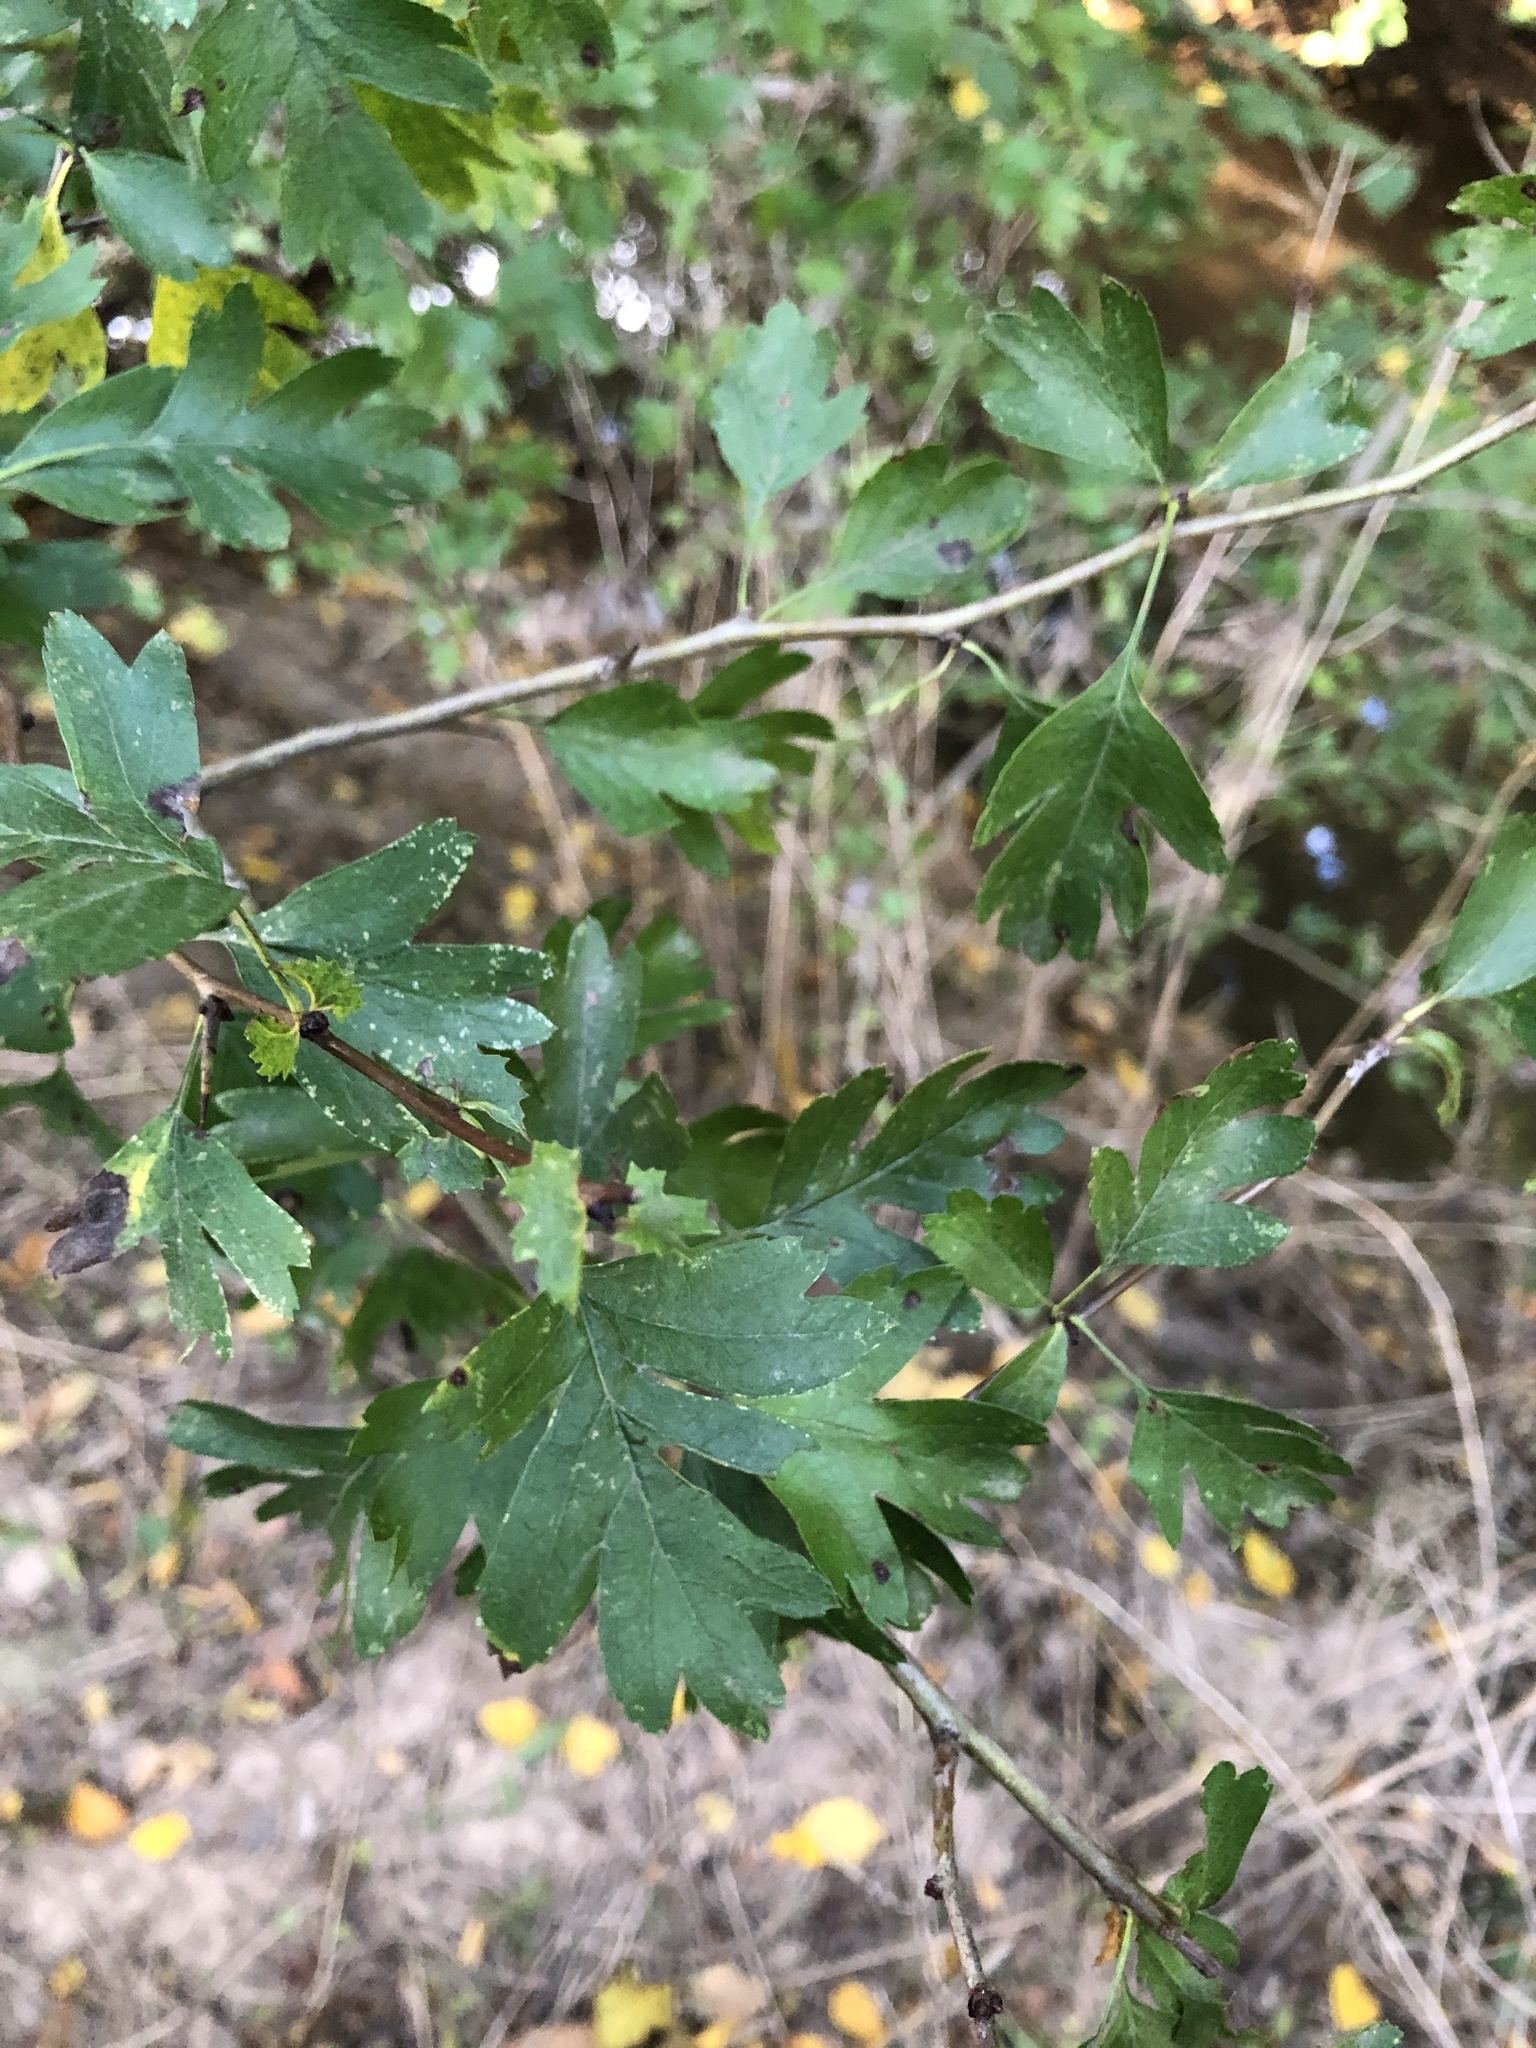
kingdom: Plantae
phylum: Tracheophyta
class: Magnoliopsida
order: Rosales
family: Rosaceae
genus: Crataegus
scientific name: Crataegus monogyna
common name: Hawthorn
